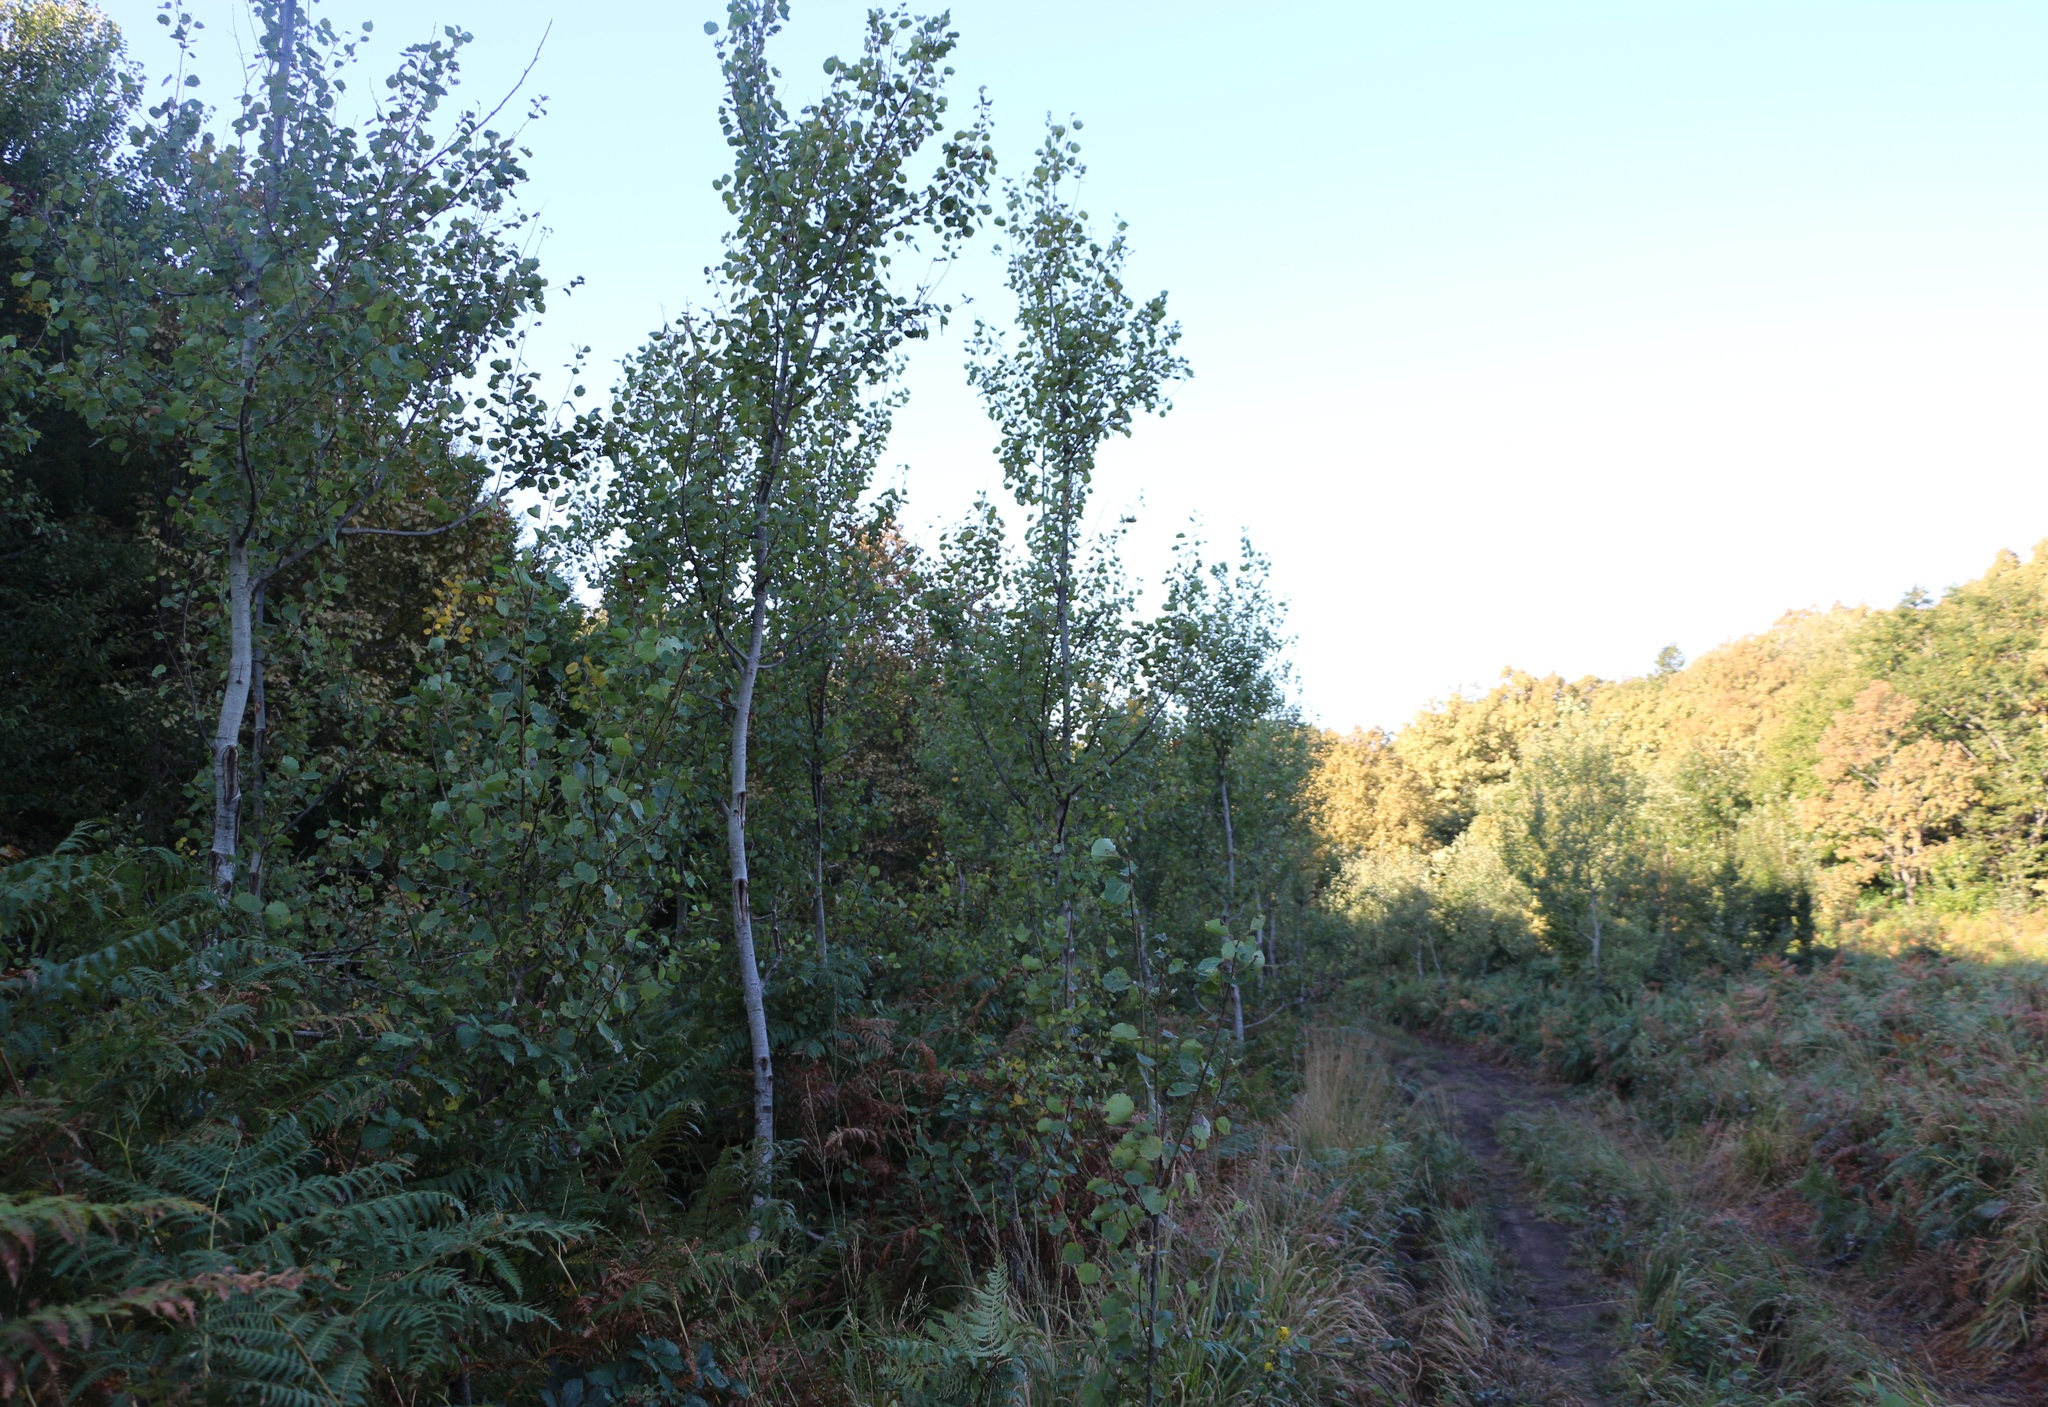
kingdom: Plantae
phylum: Tracheophyta
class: Magnoliopsida
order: Malpighiales
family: Salicaceae
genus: Populus
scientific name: Populus tremula
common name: European aspen
